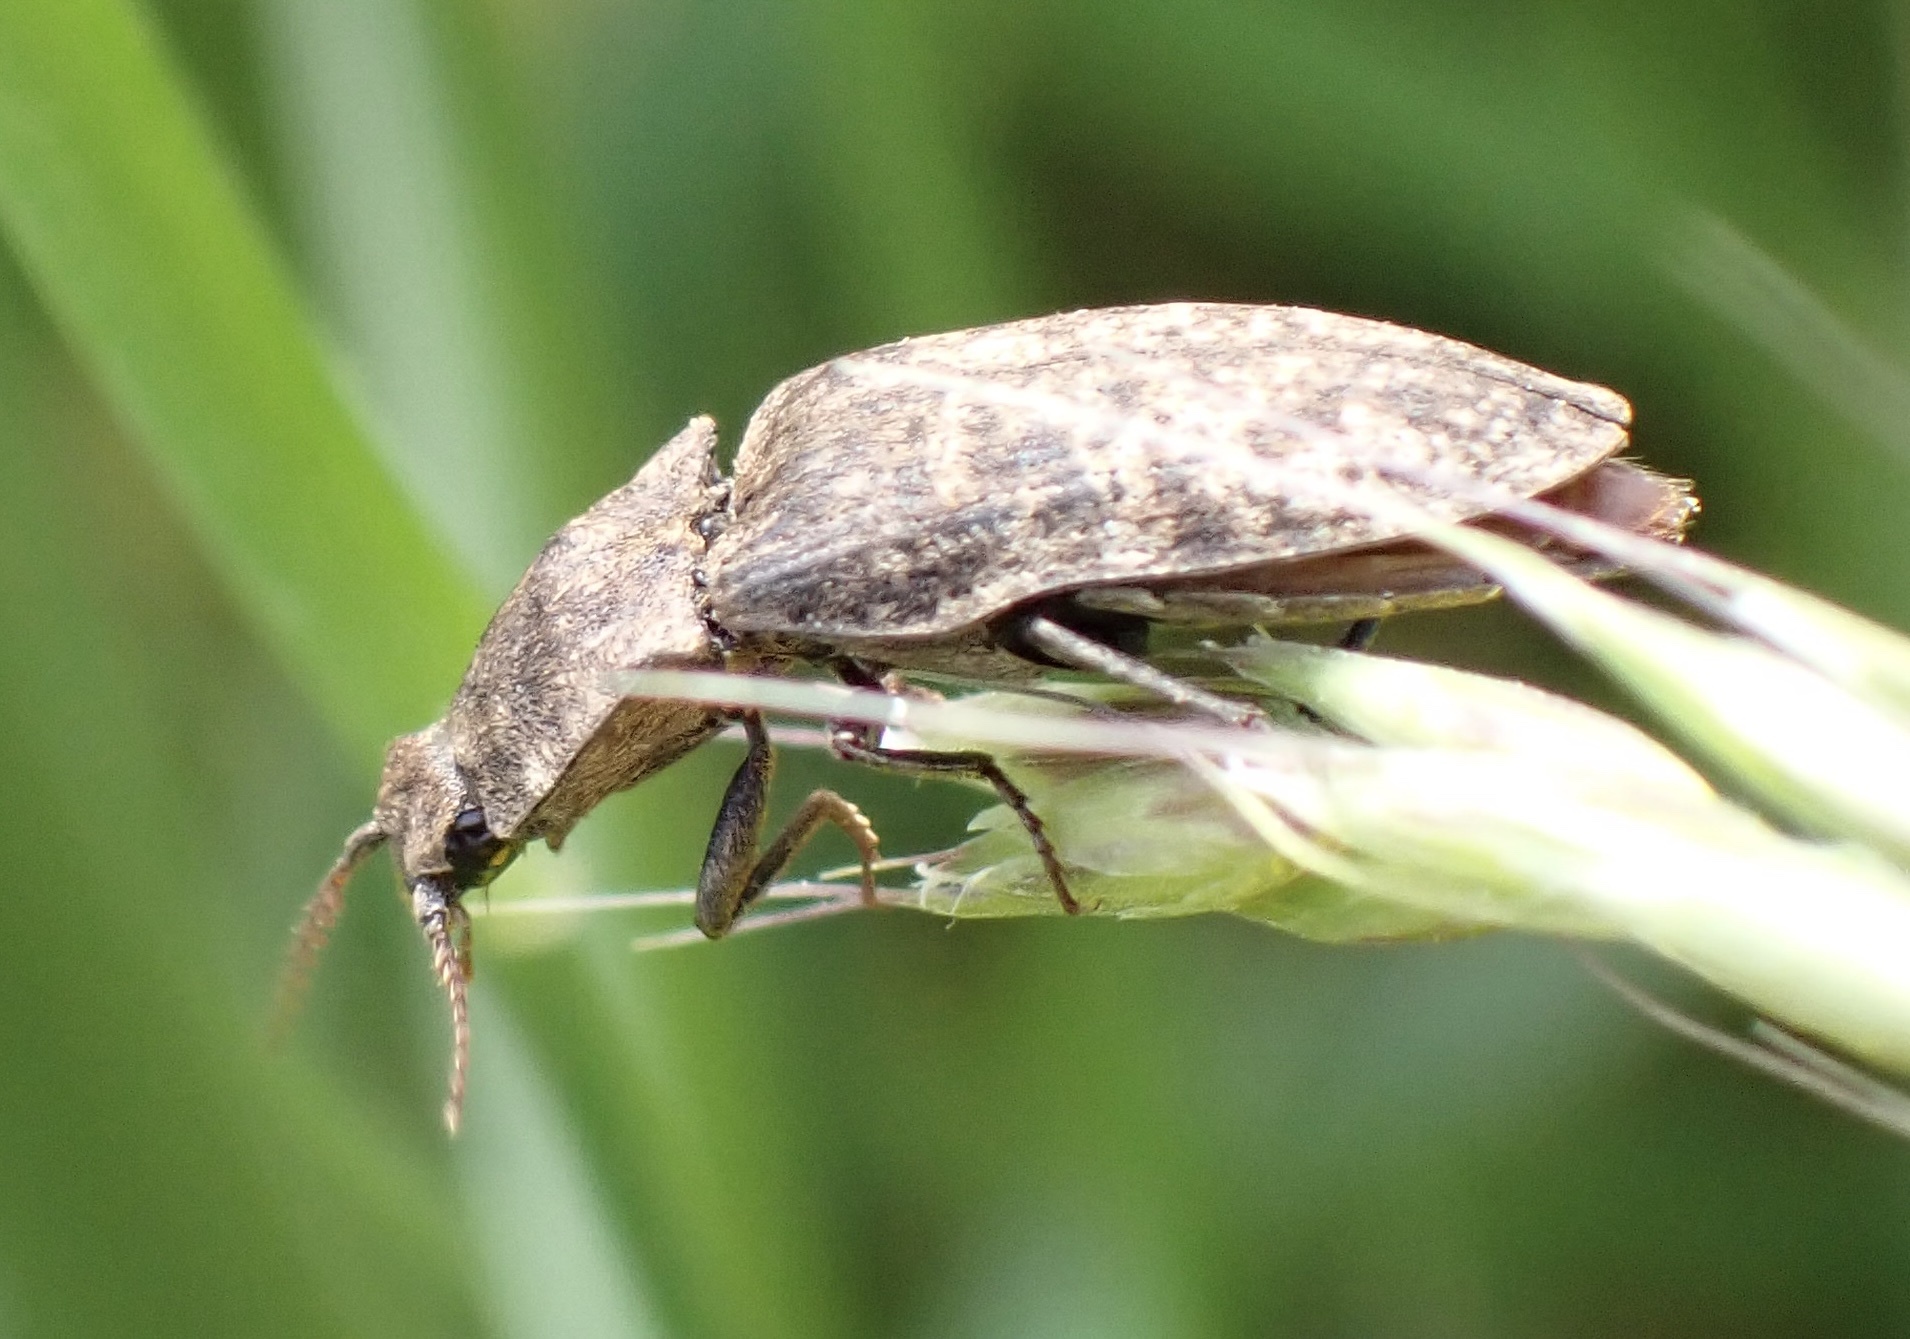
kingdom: Animalia
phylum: Arthropoda
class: Insecta
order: Coleoptera
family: Elateridae
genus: Agrypnus
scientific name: Agrypnus murinus
